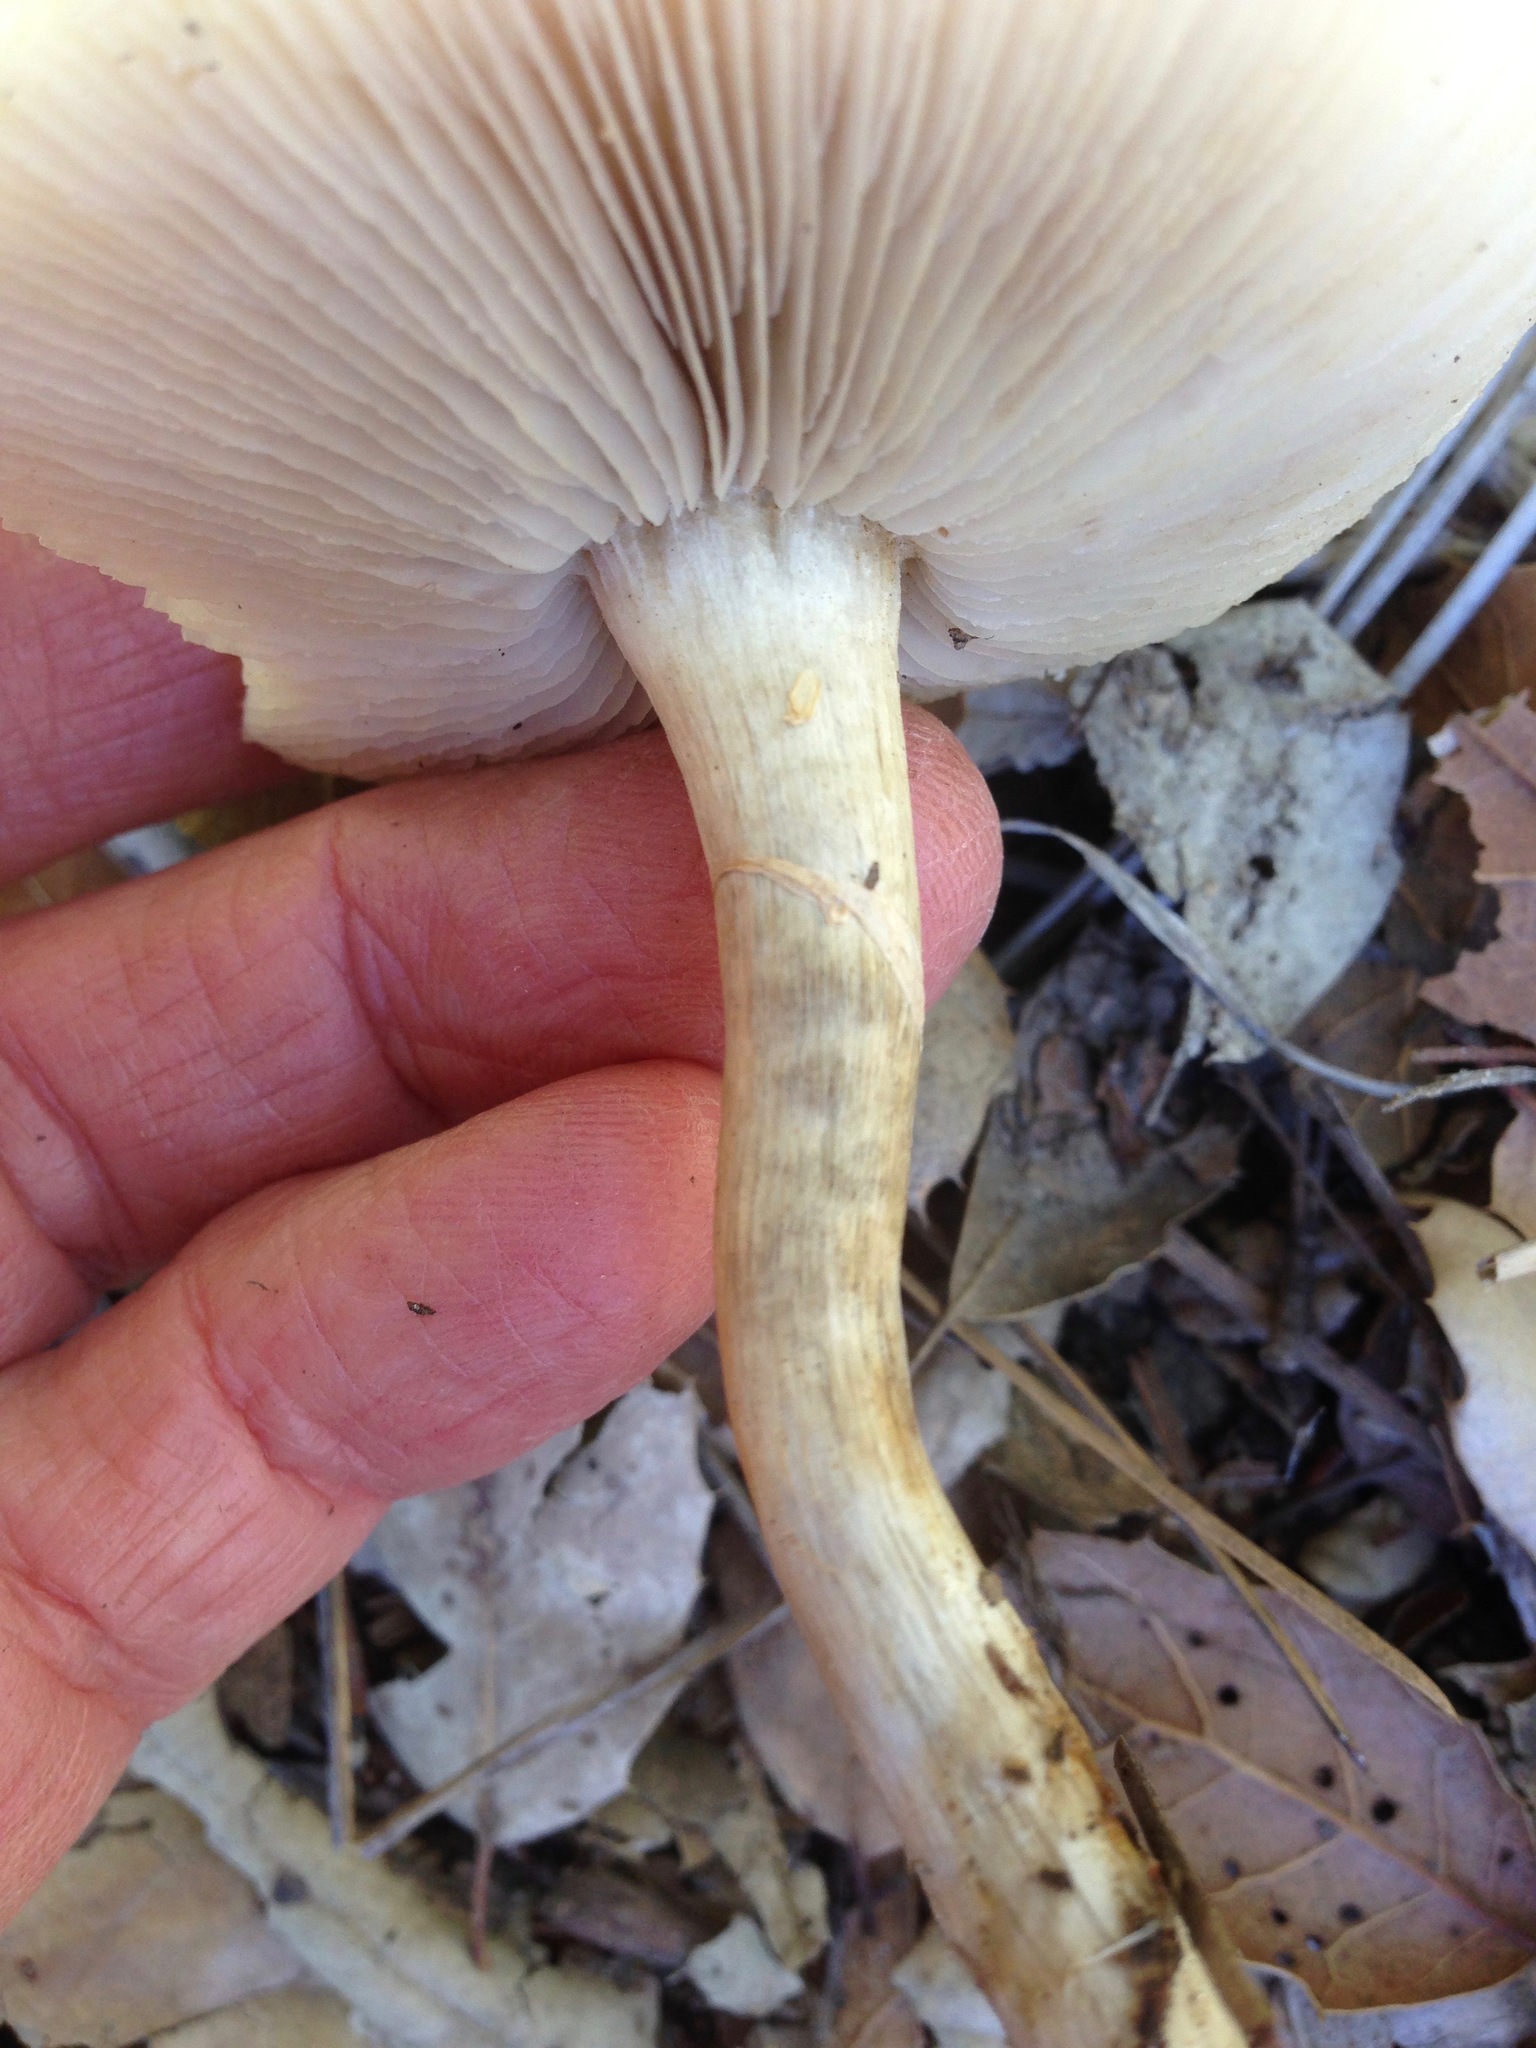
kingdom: Fungi
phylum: Basidiomycota
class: Agaricomycetes
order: Agaricales
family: Strophariaceae
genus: Agrocybe
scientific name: Agrocybe praecox
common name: Spring fieldcap
